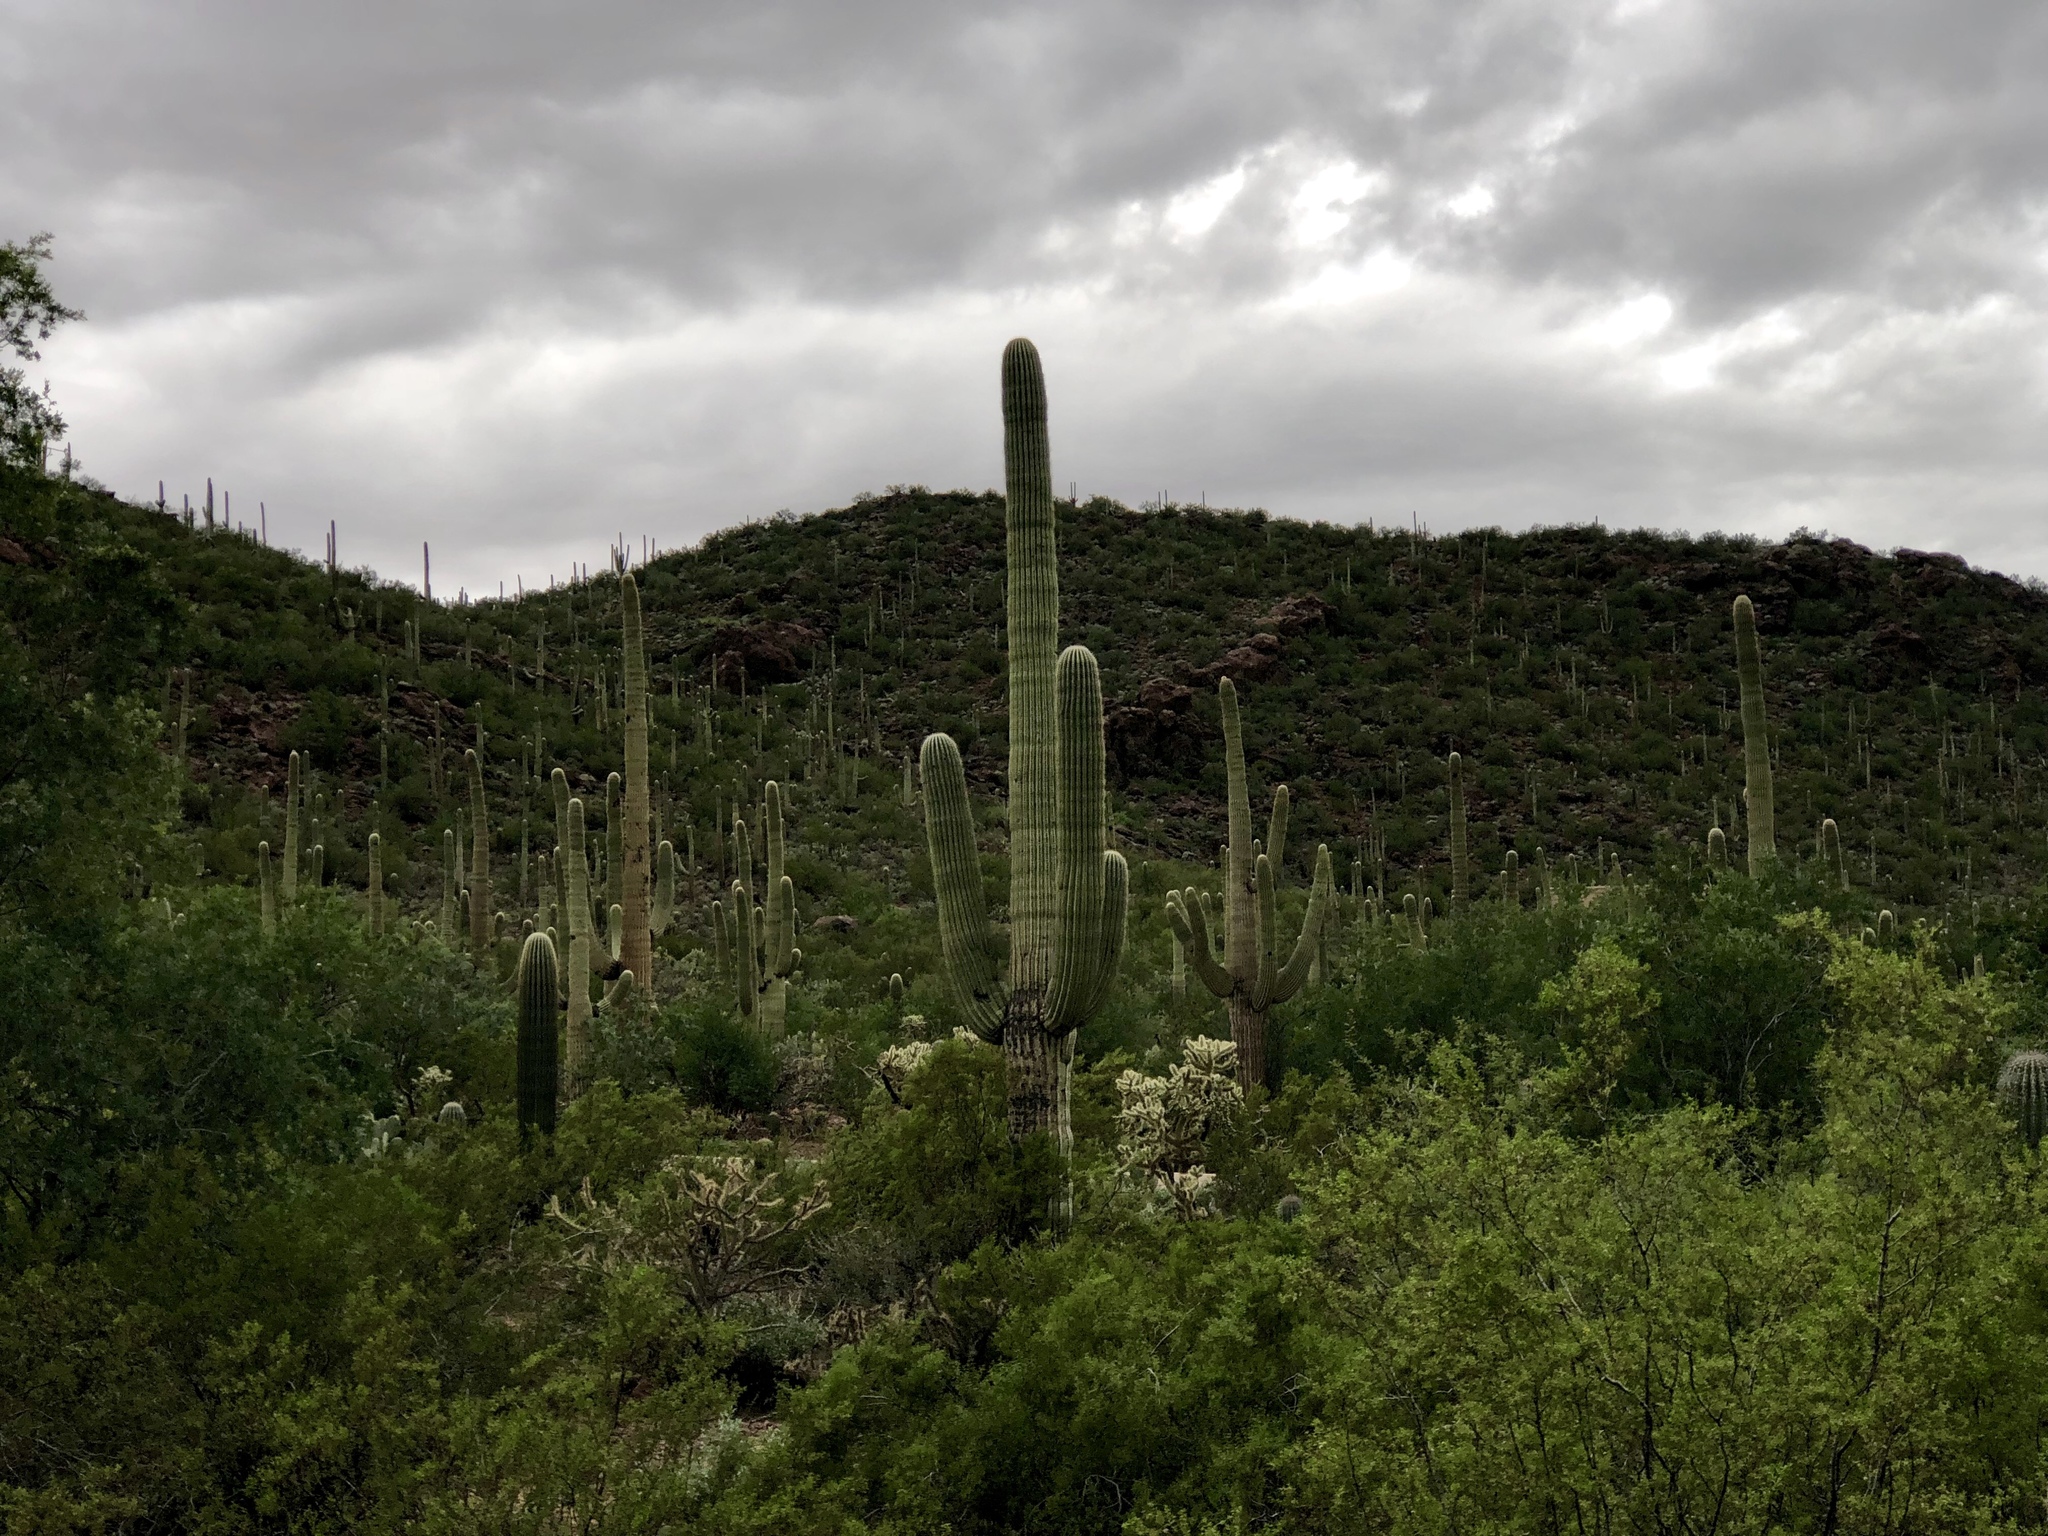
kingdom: Plantae
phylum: Tracheophyta
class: Magnoliopsida
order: Caryophyllales
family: Cactaceae
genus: Carnegiea
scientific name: Carnegiea gigantea
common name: Saguaro
